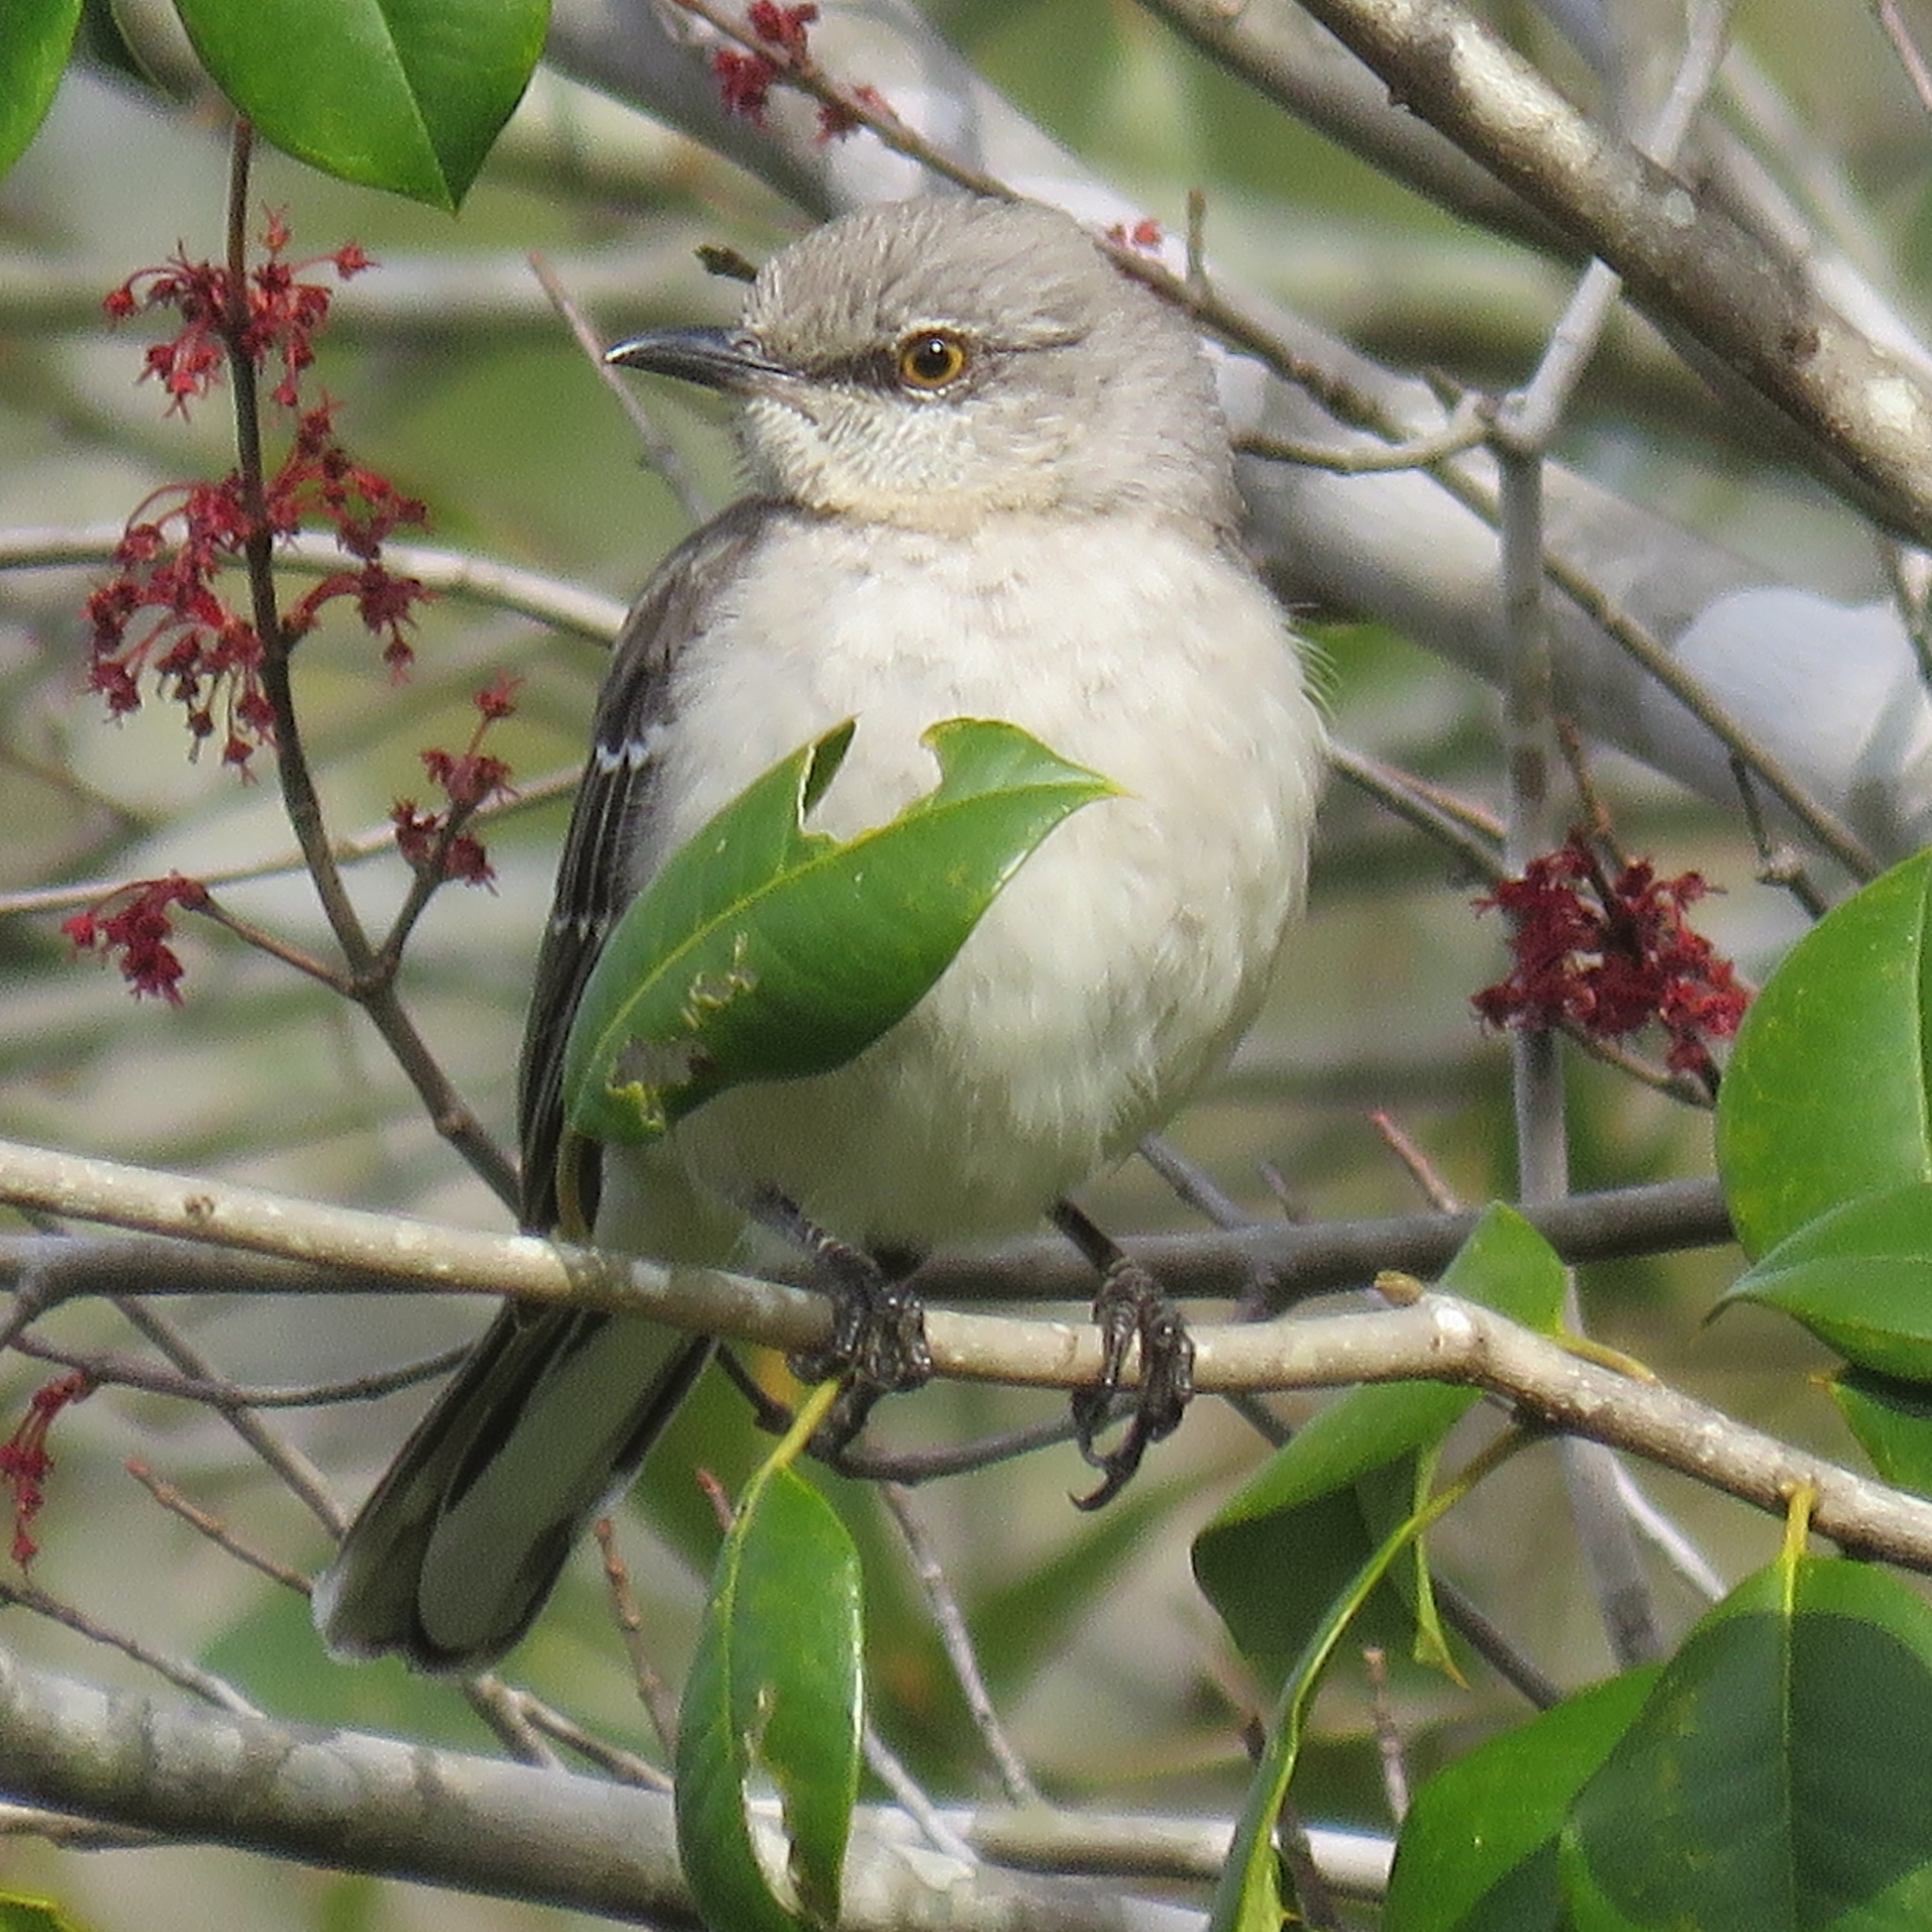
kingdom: Animalia
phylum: Chordata
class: Aves
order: Passeriformes
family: Mimidae
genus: Mimus
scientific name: Mimus polyglottos
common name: Northern mockingbird
